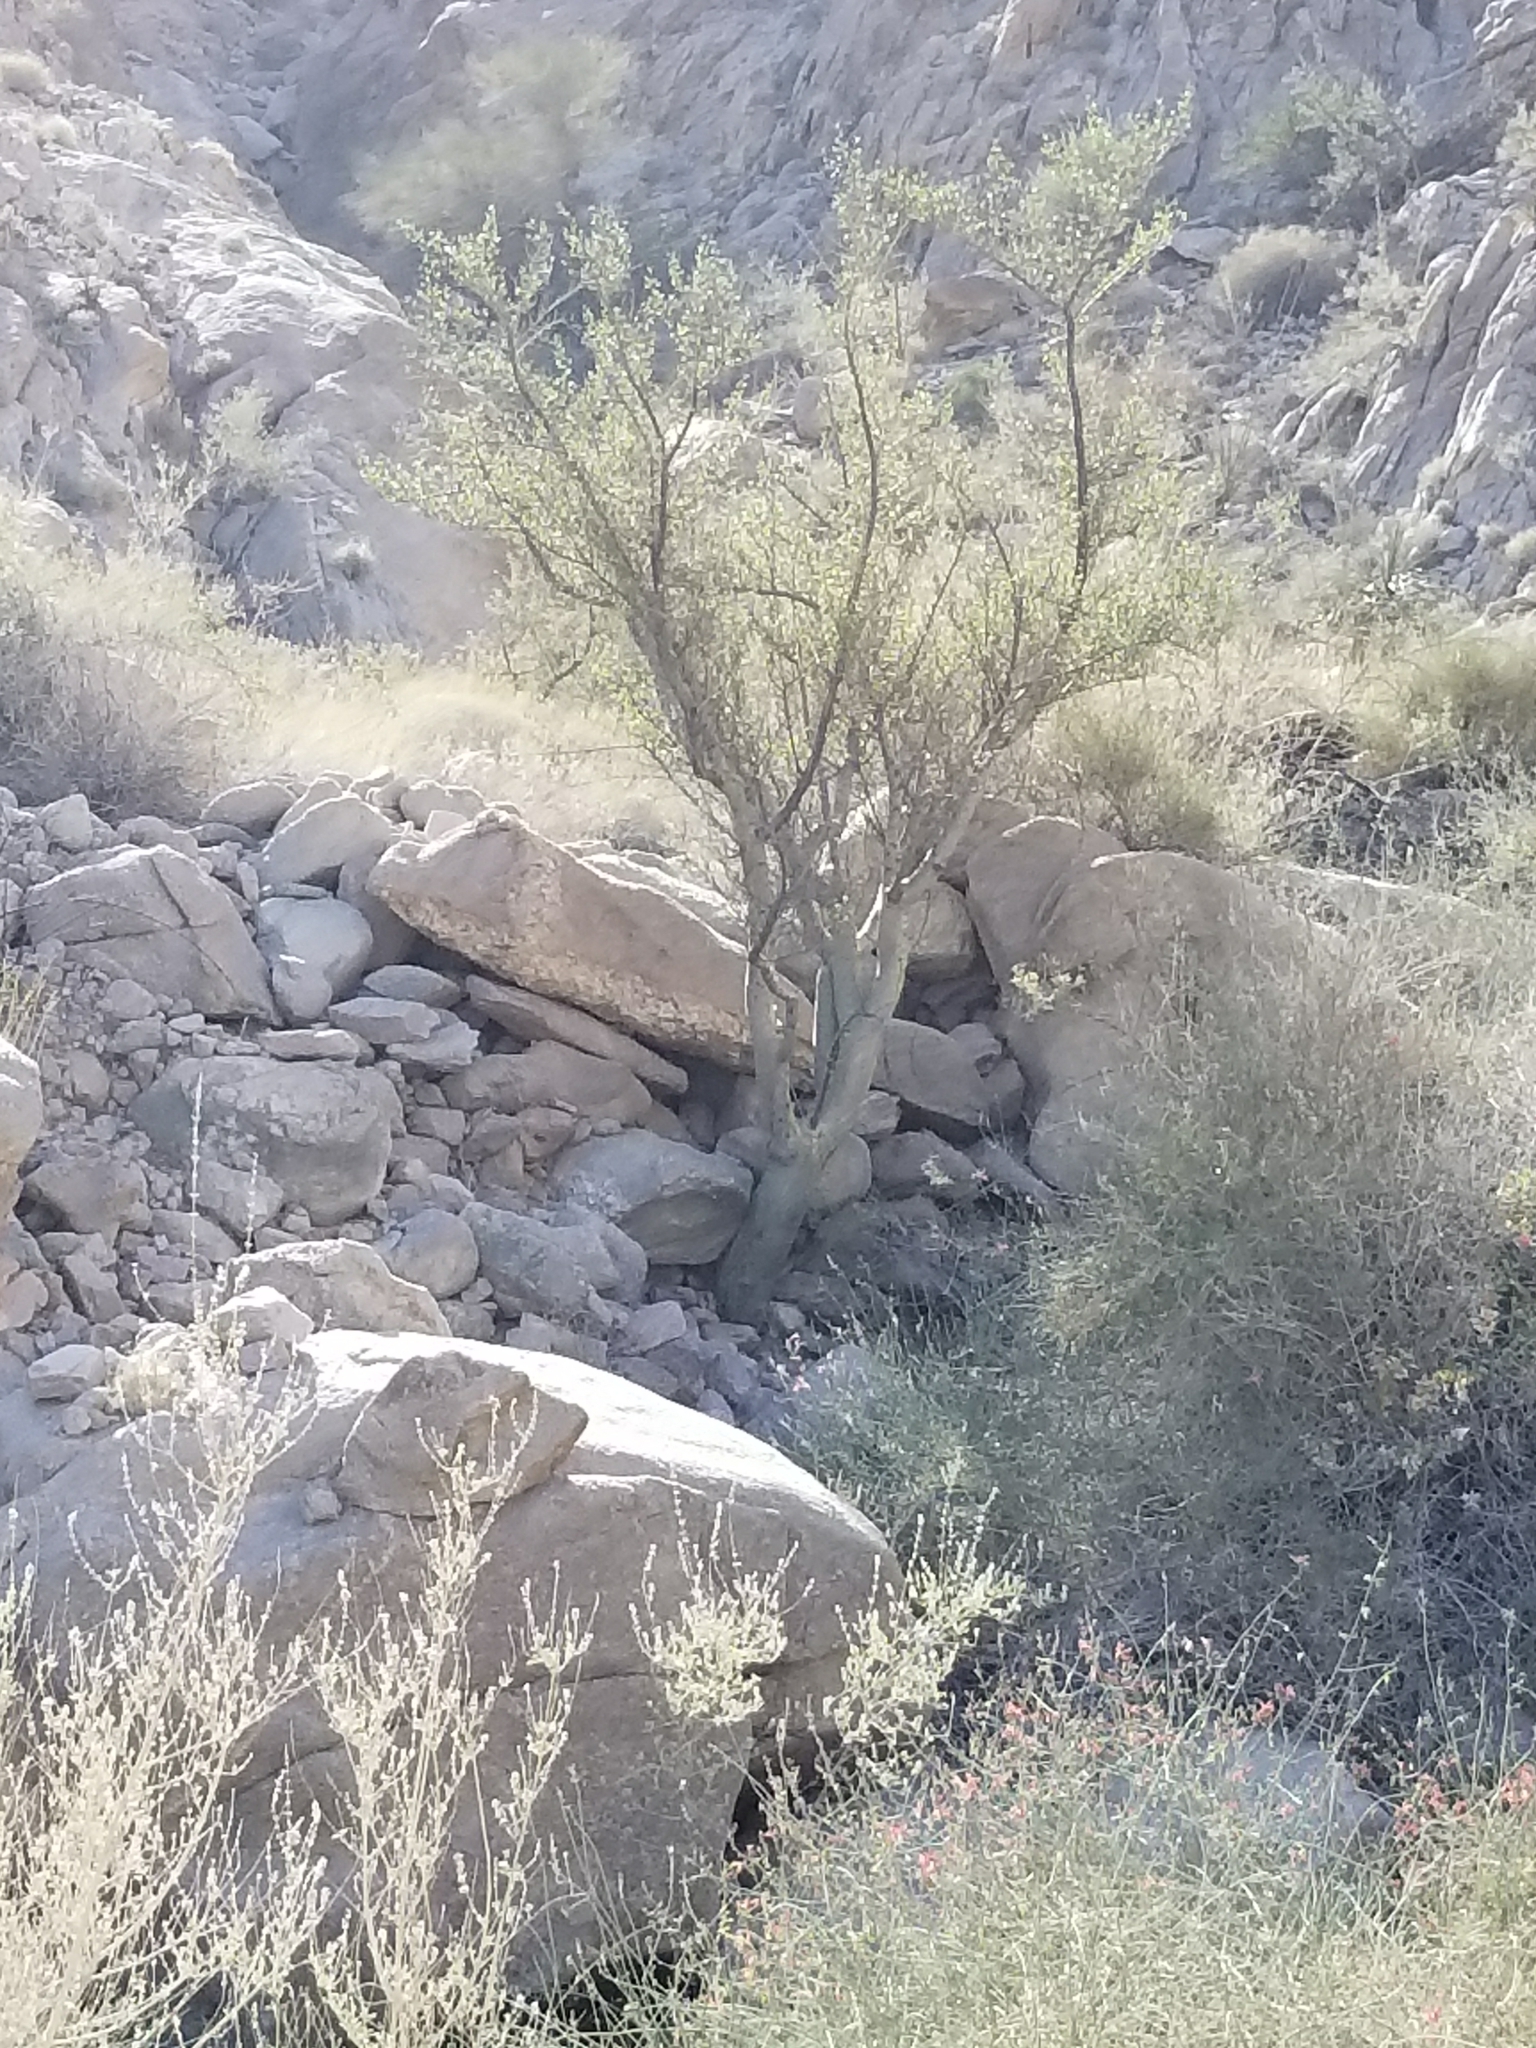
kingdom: Plantae
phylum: Tracheophyta
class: Magnoliopsida
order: Sapindales
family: Burseraceae
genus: Bursera
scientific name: Bursera microphylla
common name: Elephant tree
